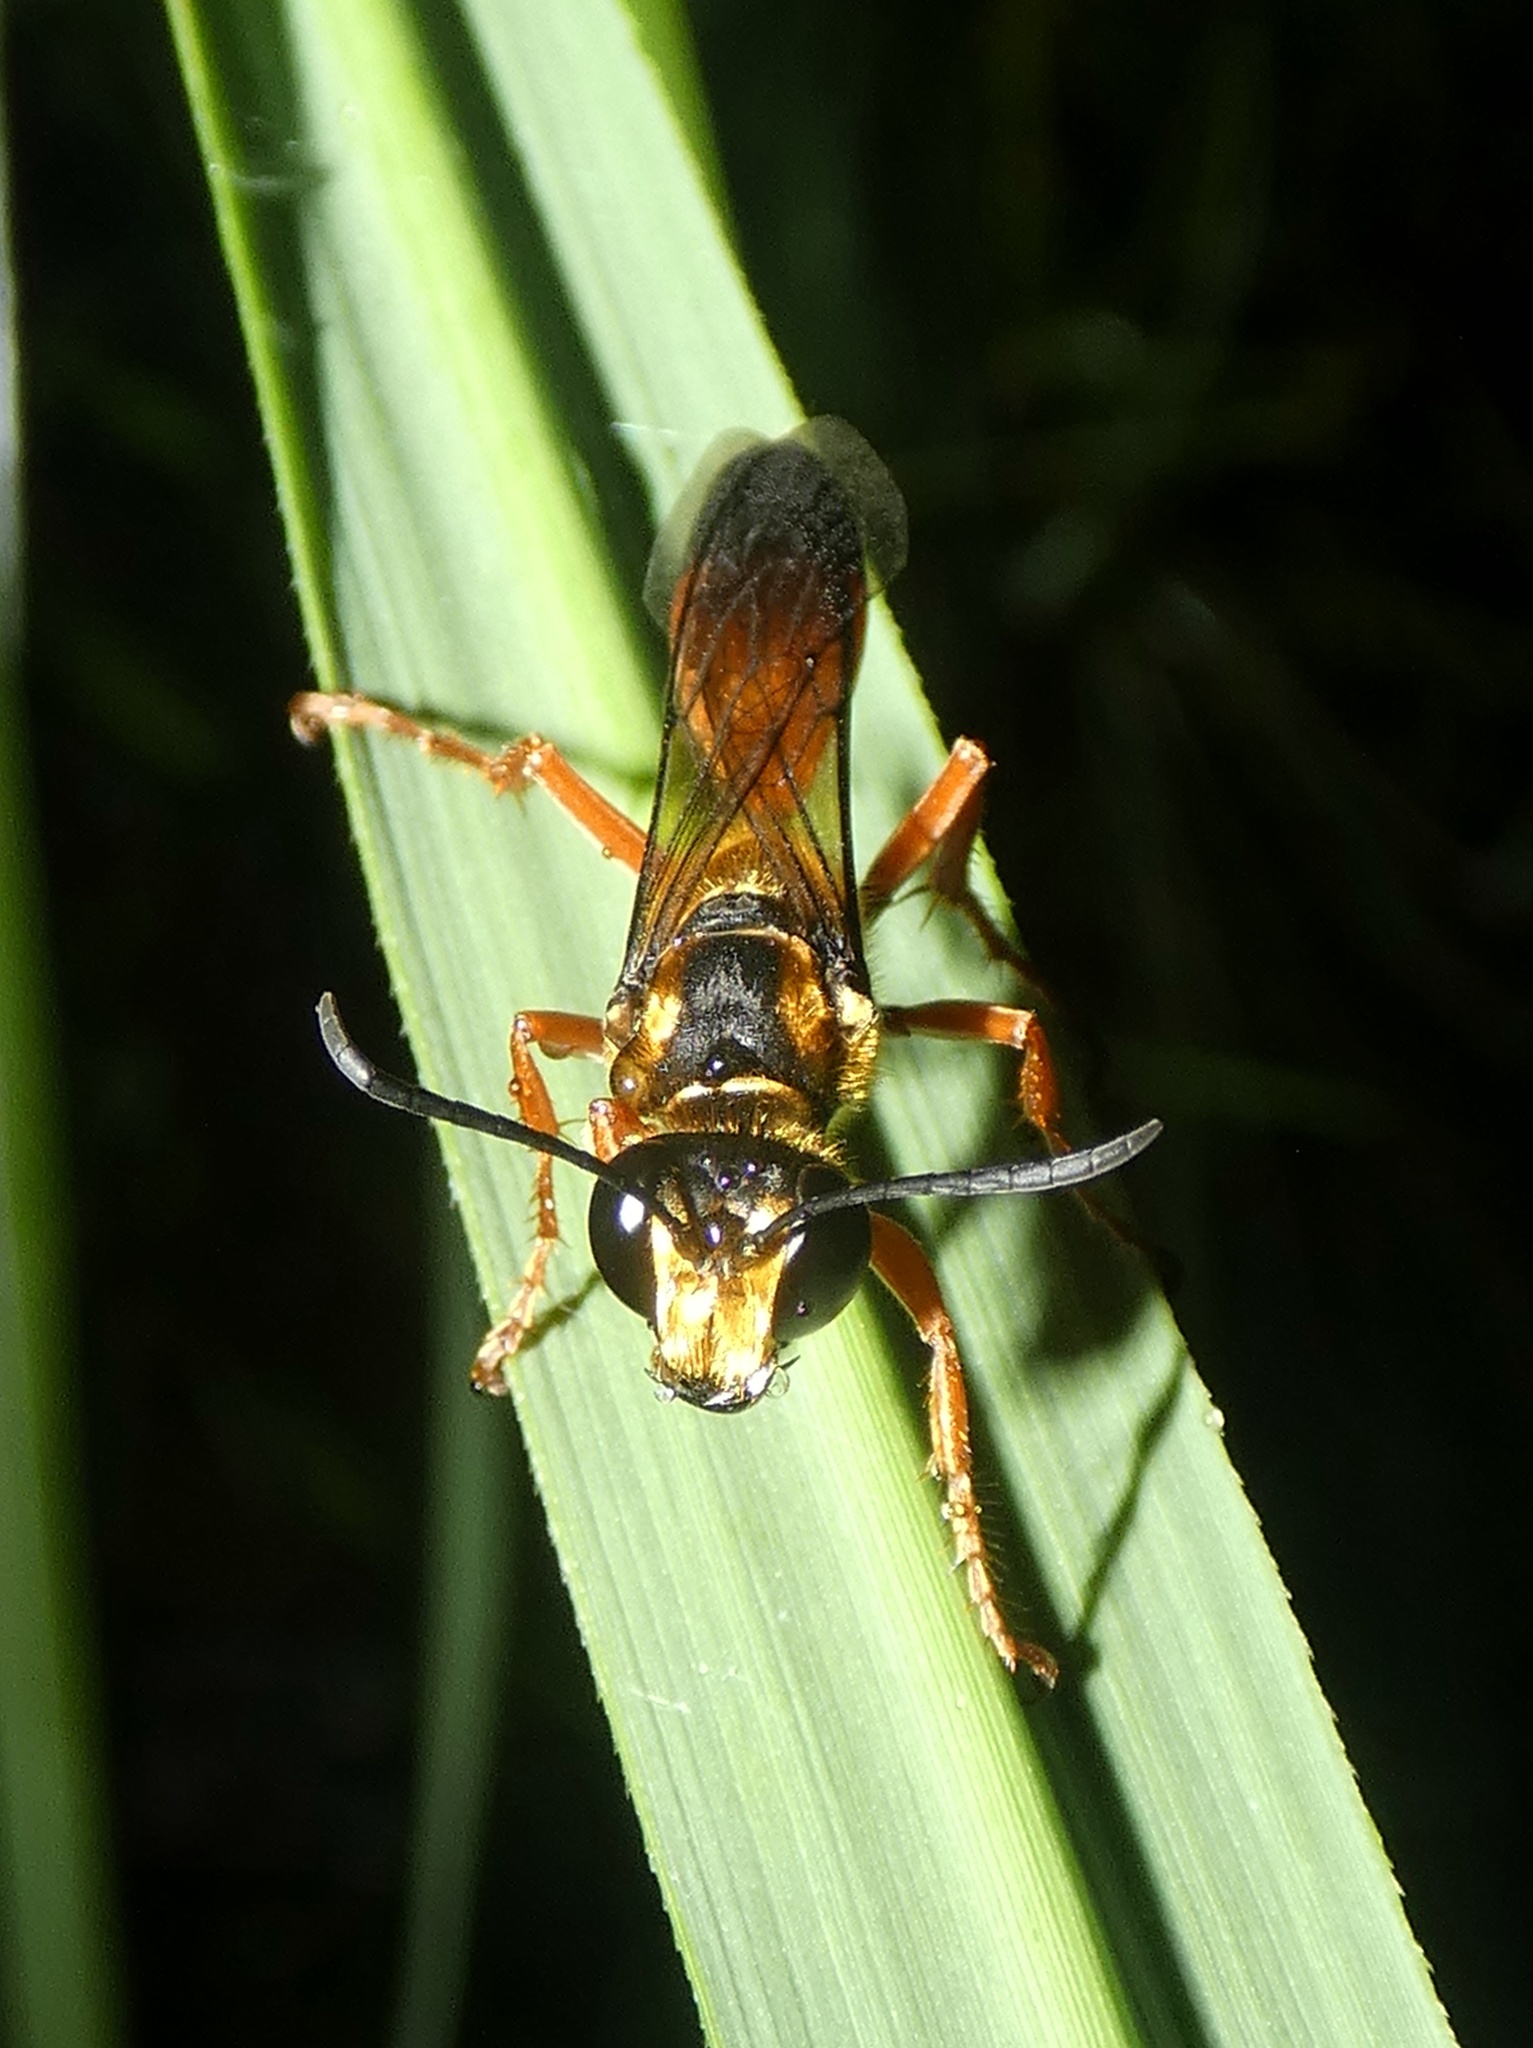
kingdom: Animalia
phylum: Arthropoda
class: Insecta
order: Hymenoptera
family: Sphecidae
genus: Sphex
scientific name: Sphex ichneumoneus
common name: Great golden digger wasp
